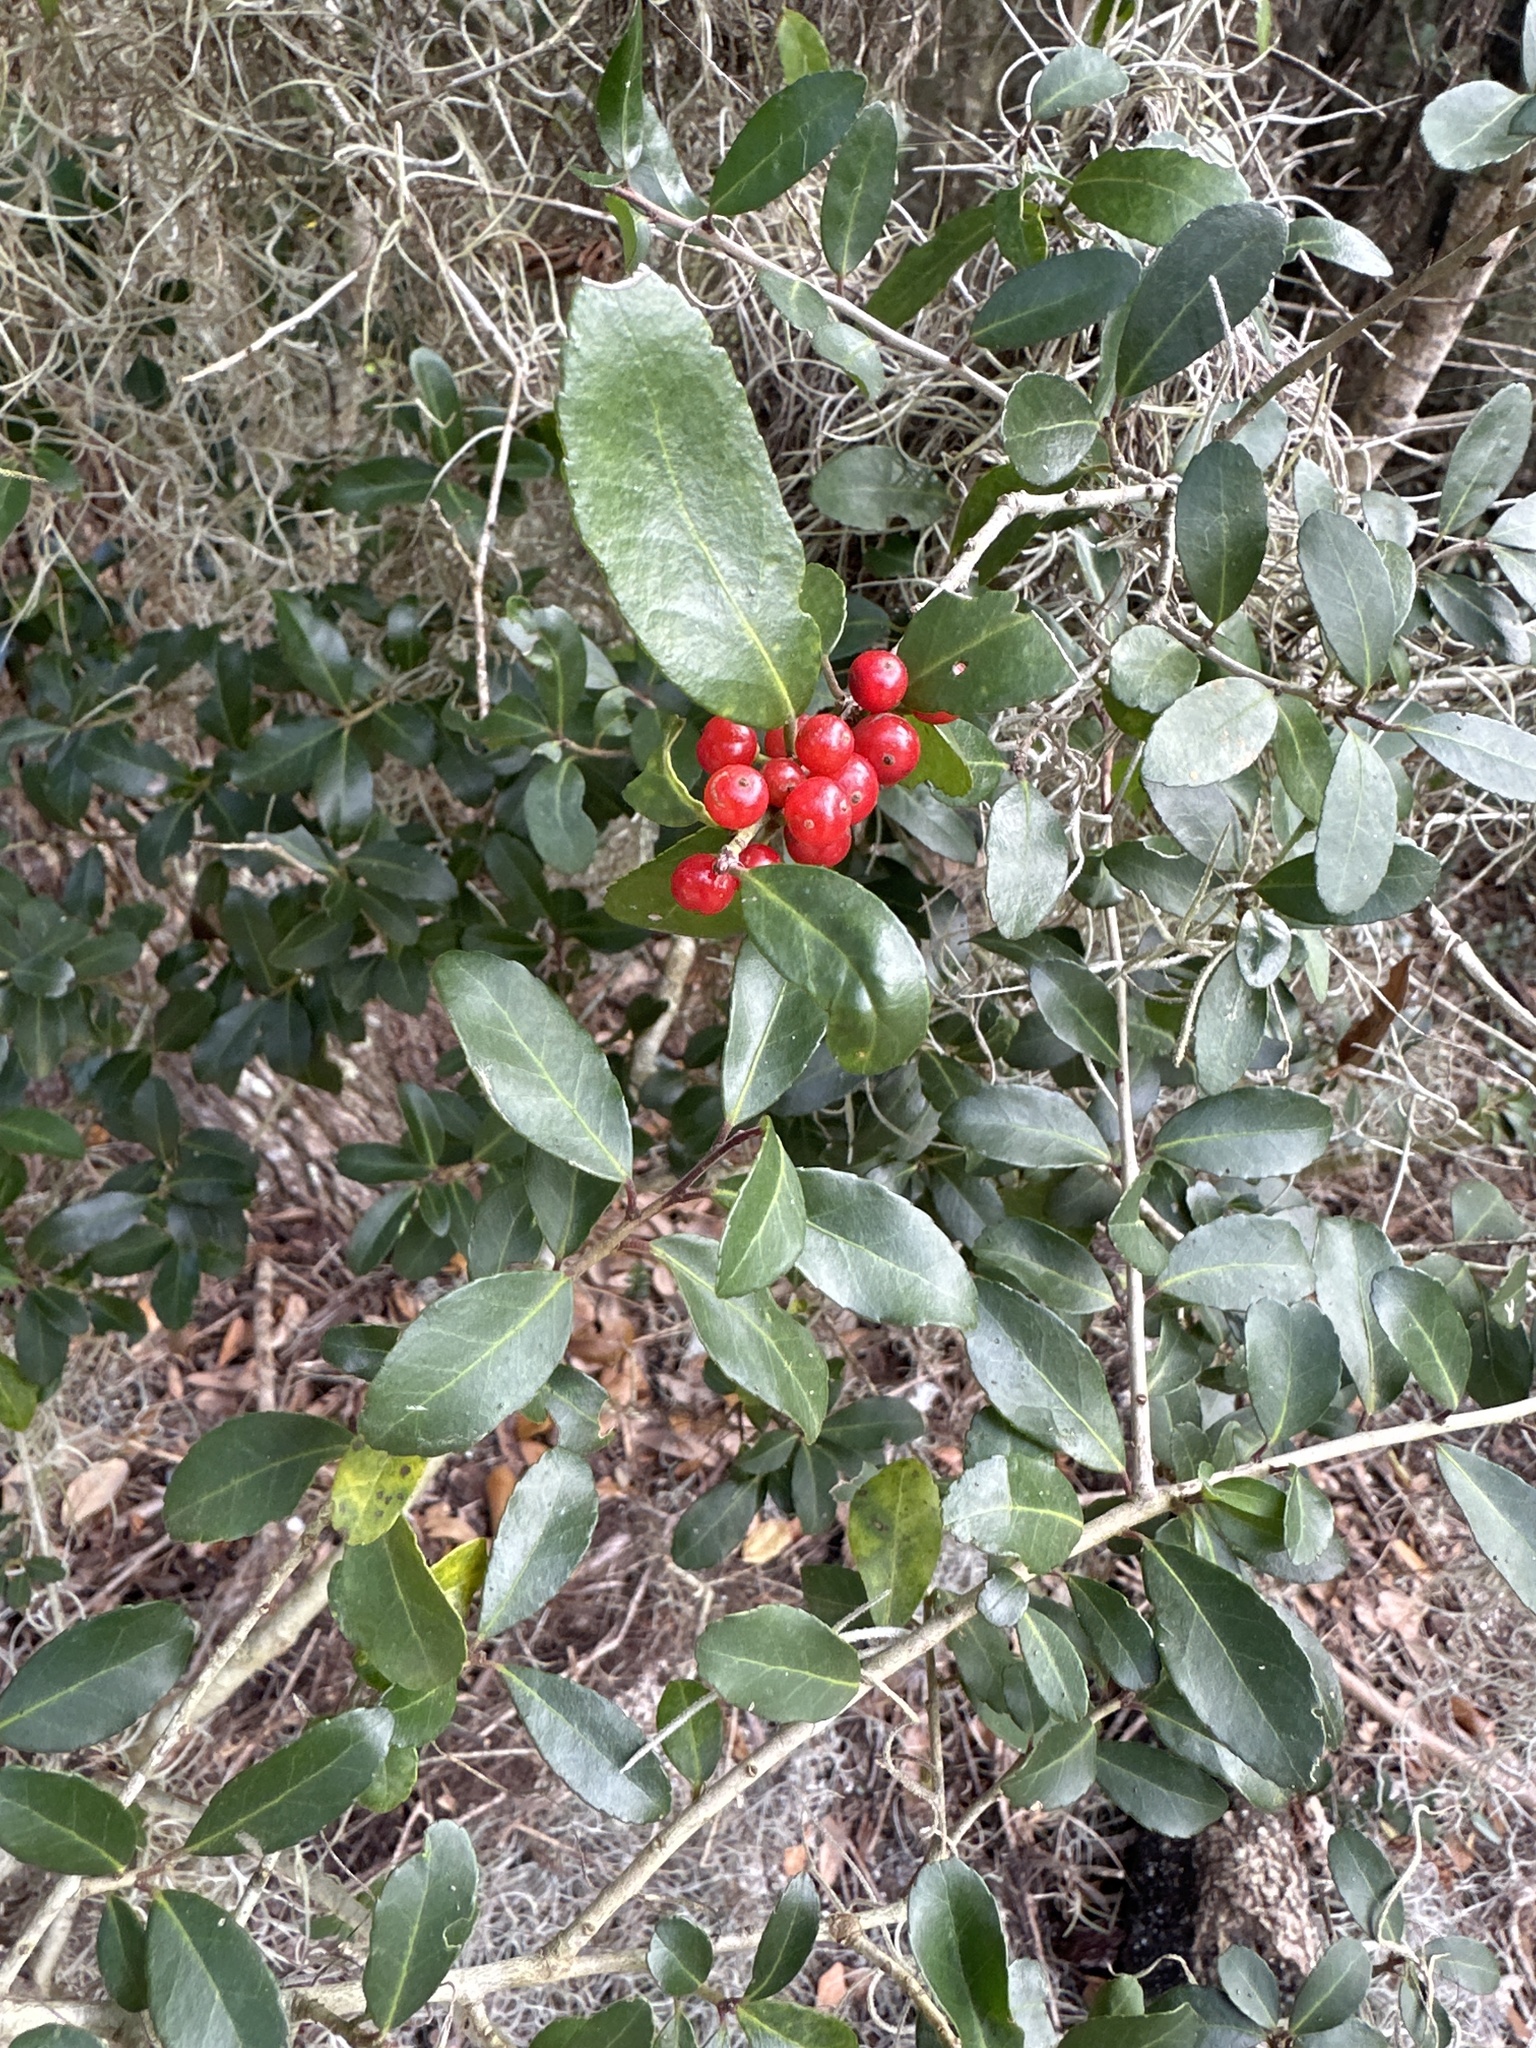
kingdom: Plantae
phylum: Tracheophyta
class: Magnoliopsida
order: Aquifoliales
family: Aquifoliaceae
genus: Ilex
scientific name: Ilex vomitoria
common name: Yaupon holly
